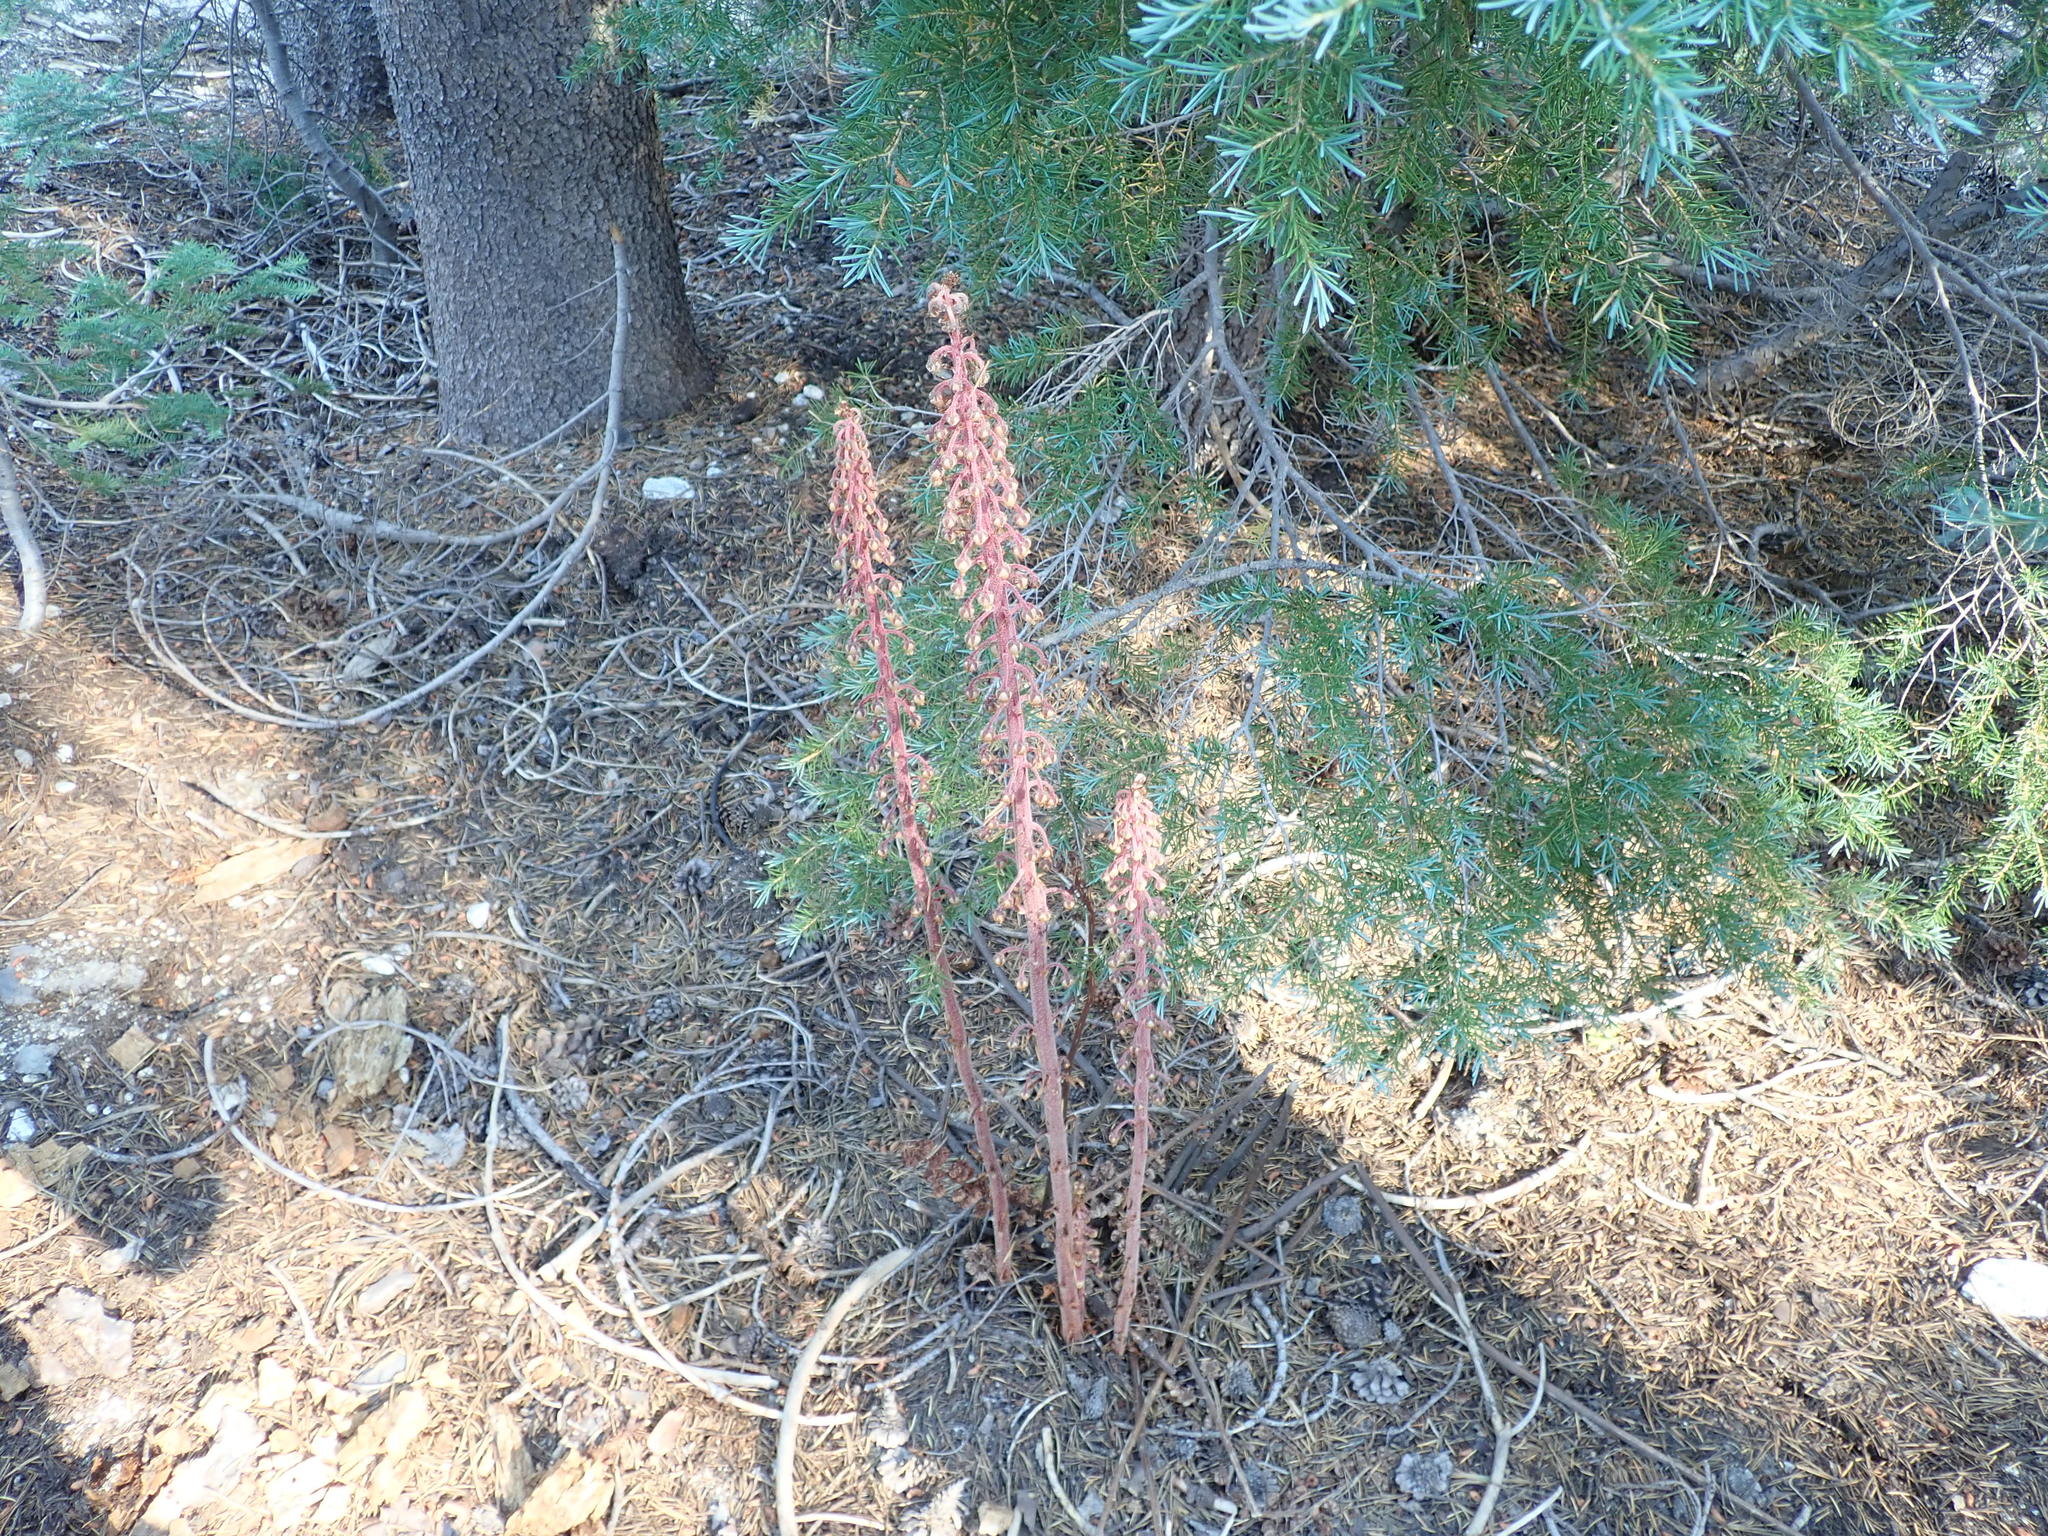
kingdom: Plantae
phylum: Tracheophyta
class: Magnoliopsida
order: Ericales
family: Ericaceae
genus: Pterospora
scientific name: Pterospora andromedea
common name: Giant bird's-nest
